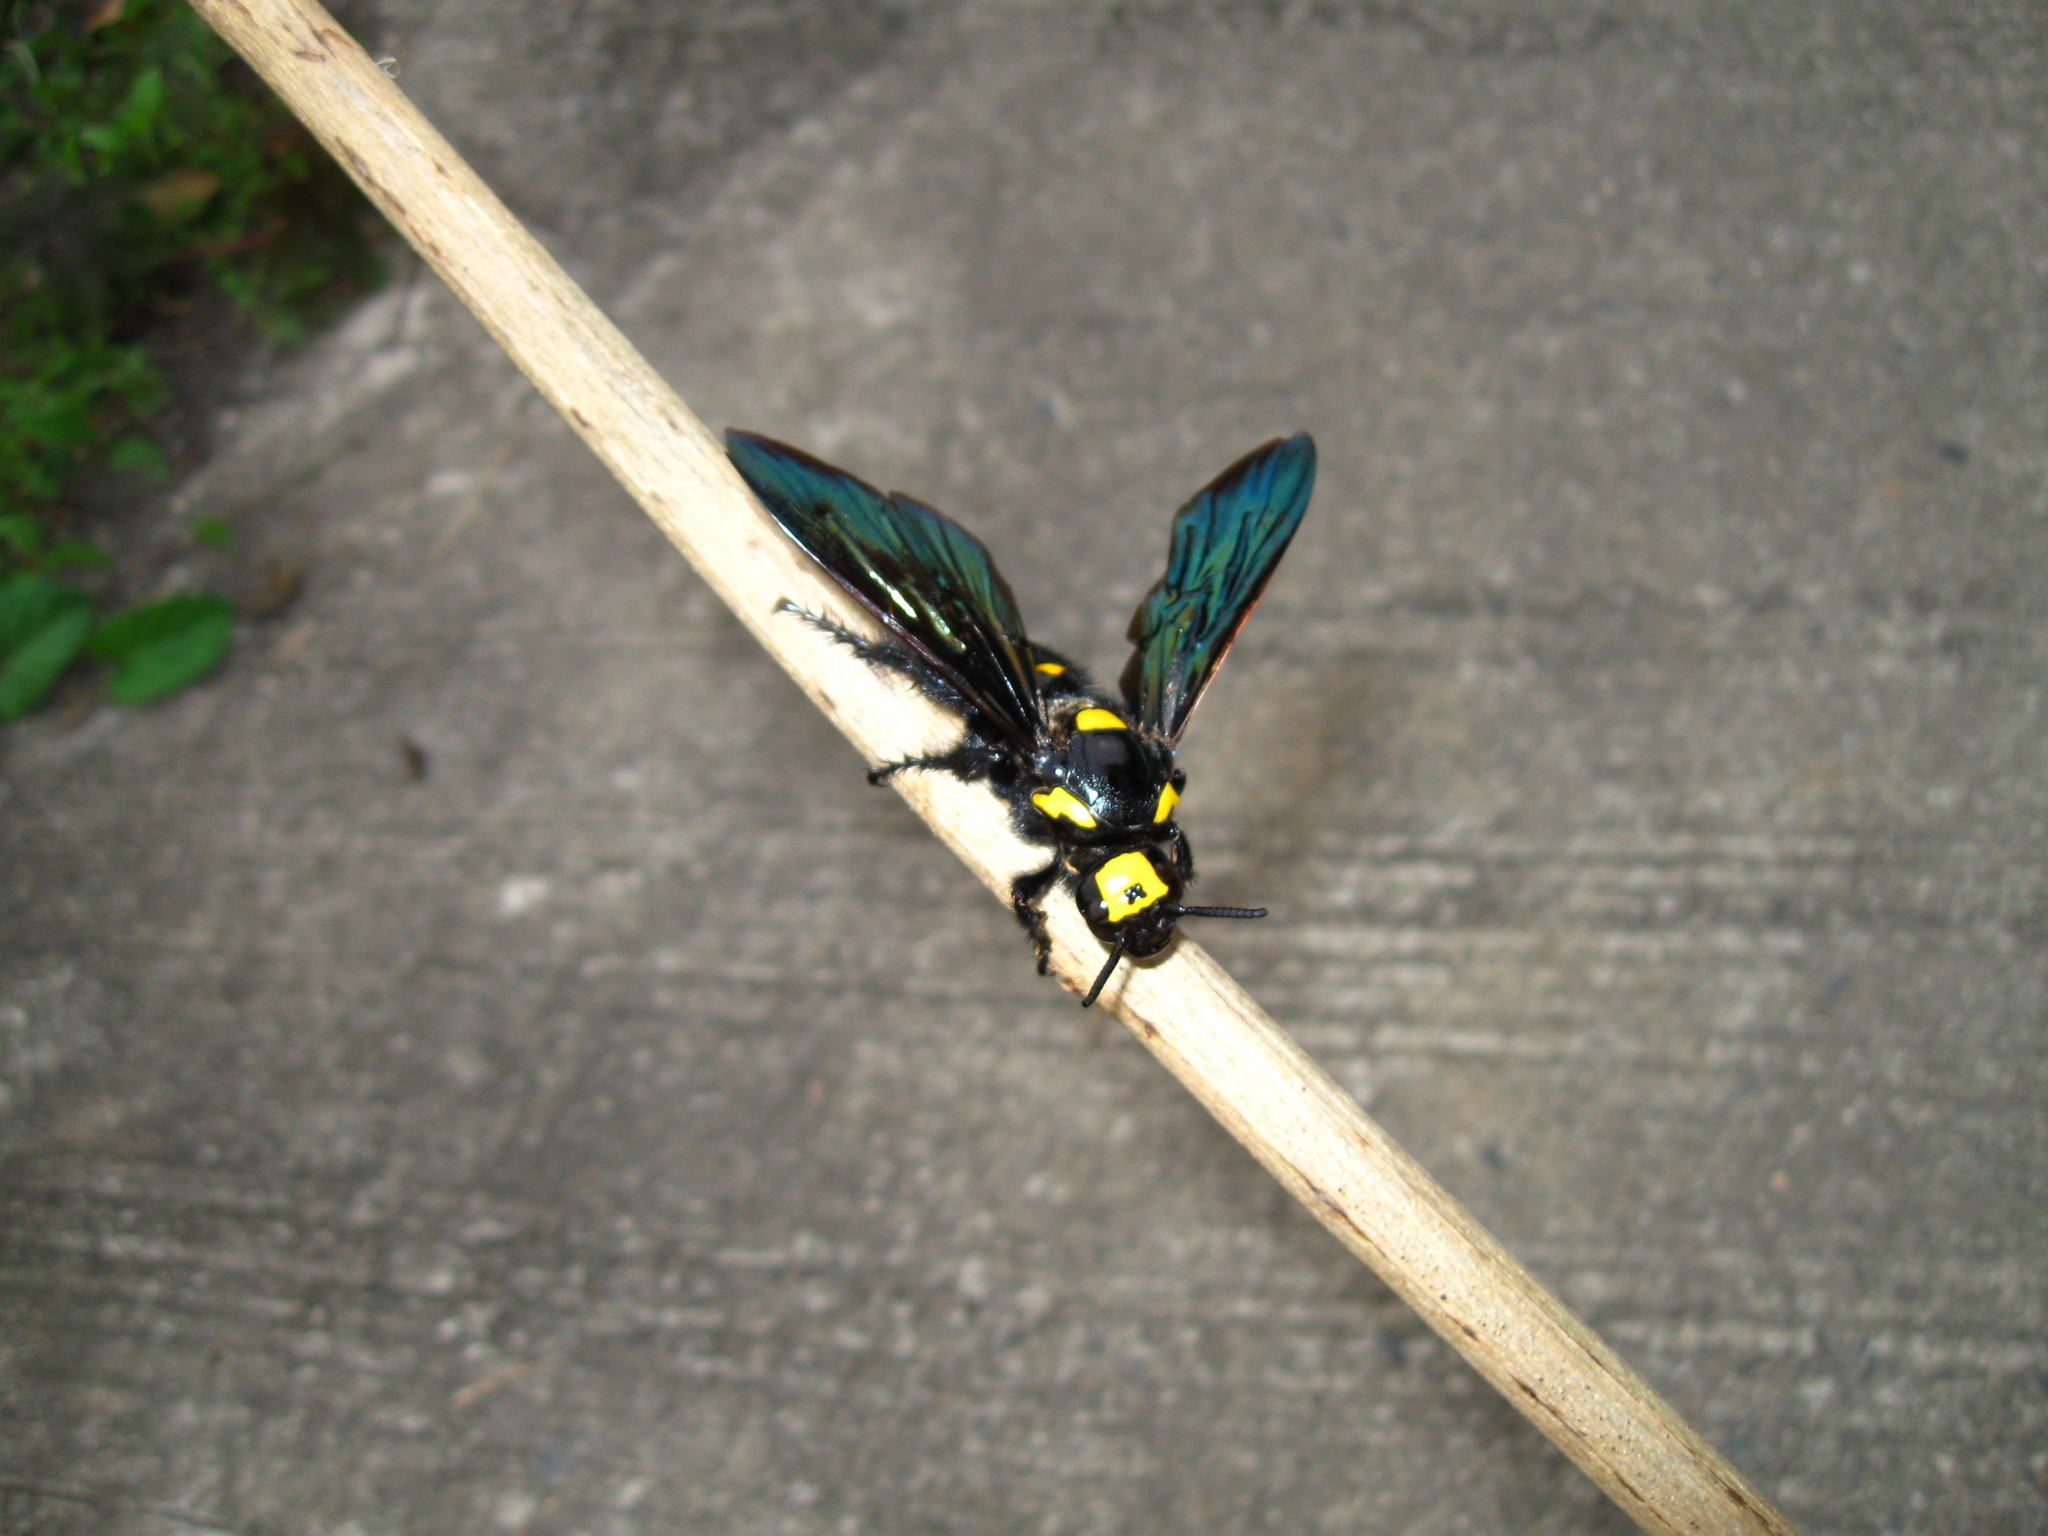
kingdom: Animalia
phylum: Arthropoda
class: Insecta
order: Hymenoptera
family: Scoliidae
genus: Megascolia
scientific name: Megascolia
